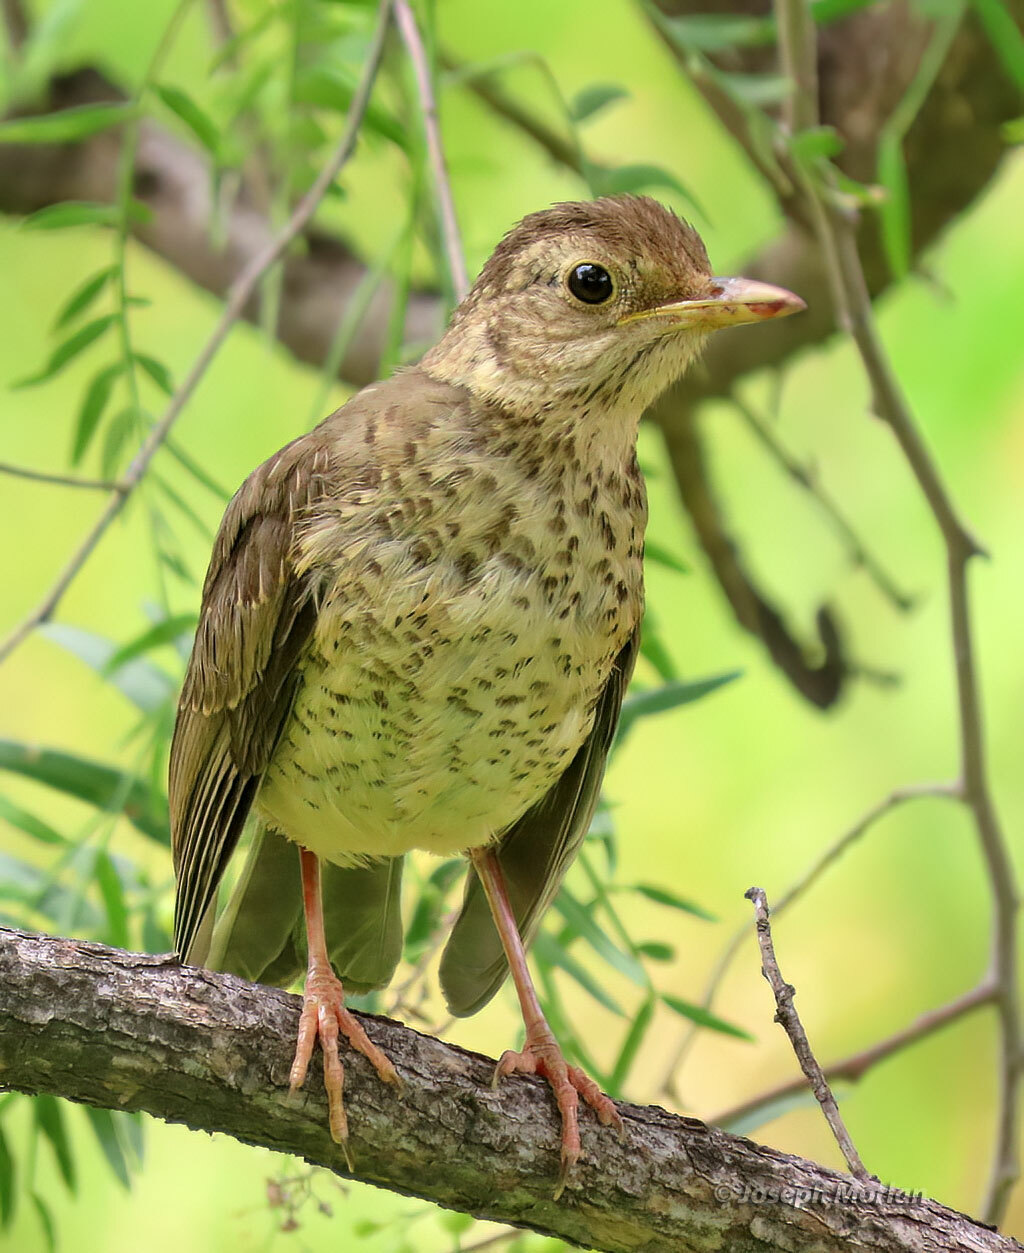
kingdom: Animalia
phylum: Chordata
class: Aves
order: Passeriformes
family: Turdidae
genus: Turdus
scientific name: Turdus falcklandii
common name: Austral thrush
